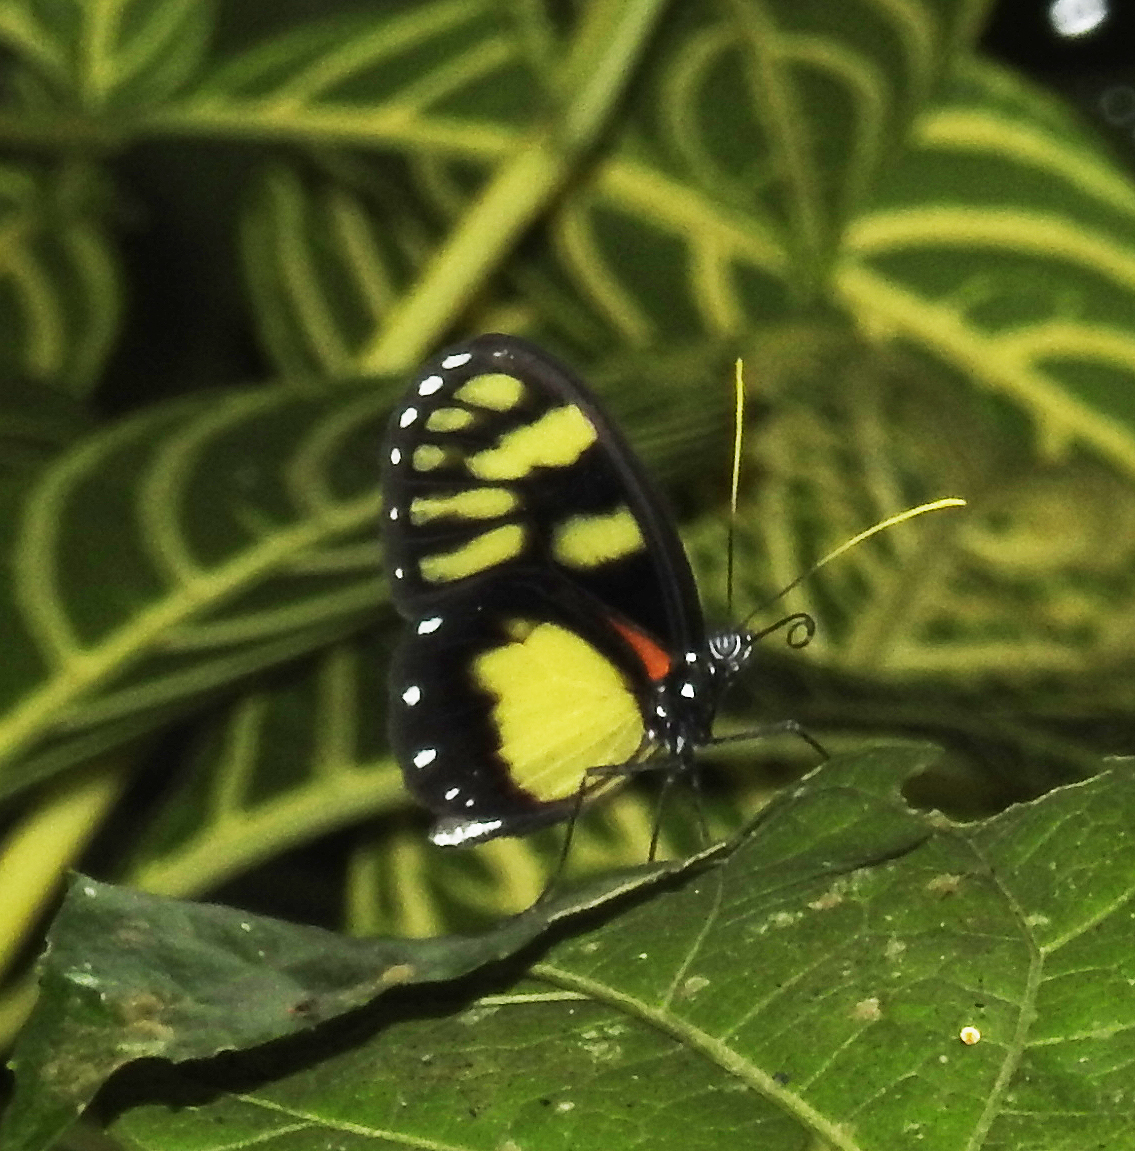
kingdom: Animalia
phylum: Arthropoda
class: Insecta
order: Lepidoptera
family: Nymphalidae
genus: Godyris
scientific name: Godyris zavaleta
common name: Zavaleta glasswing
